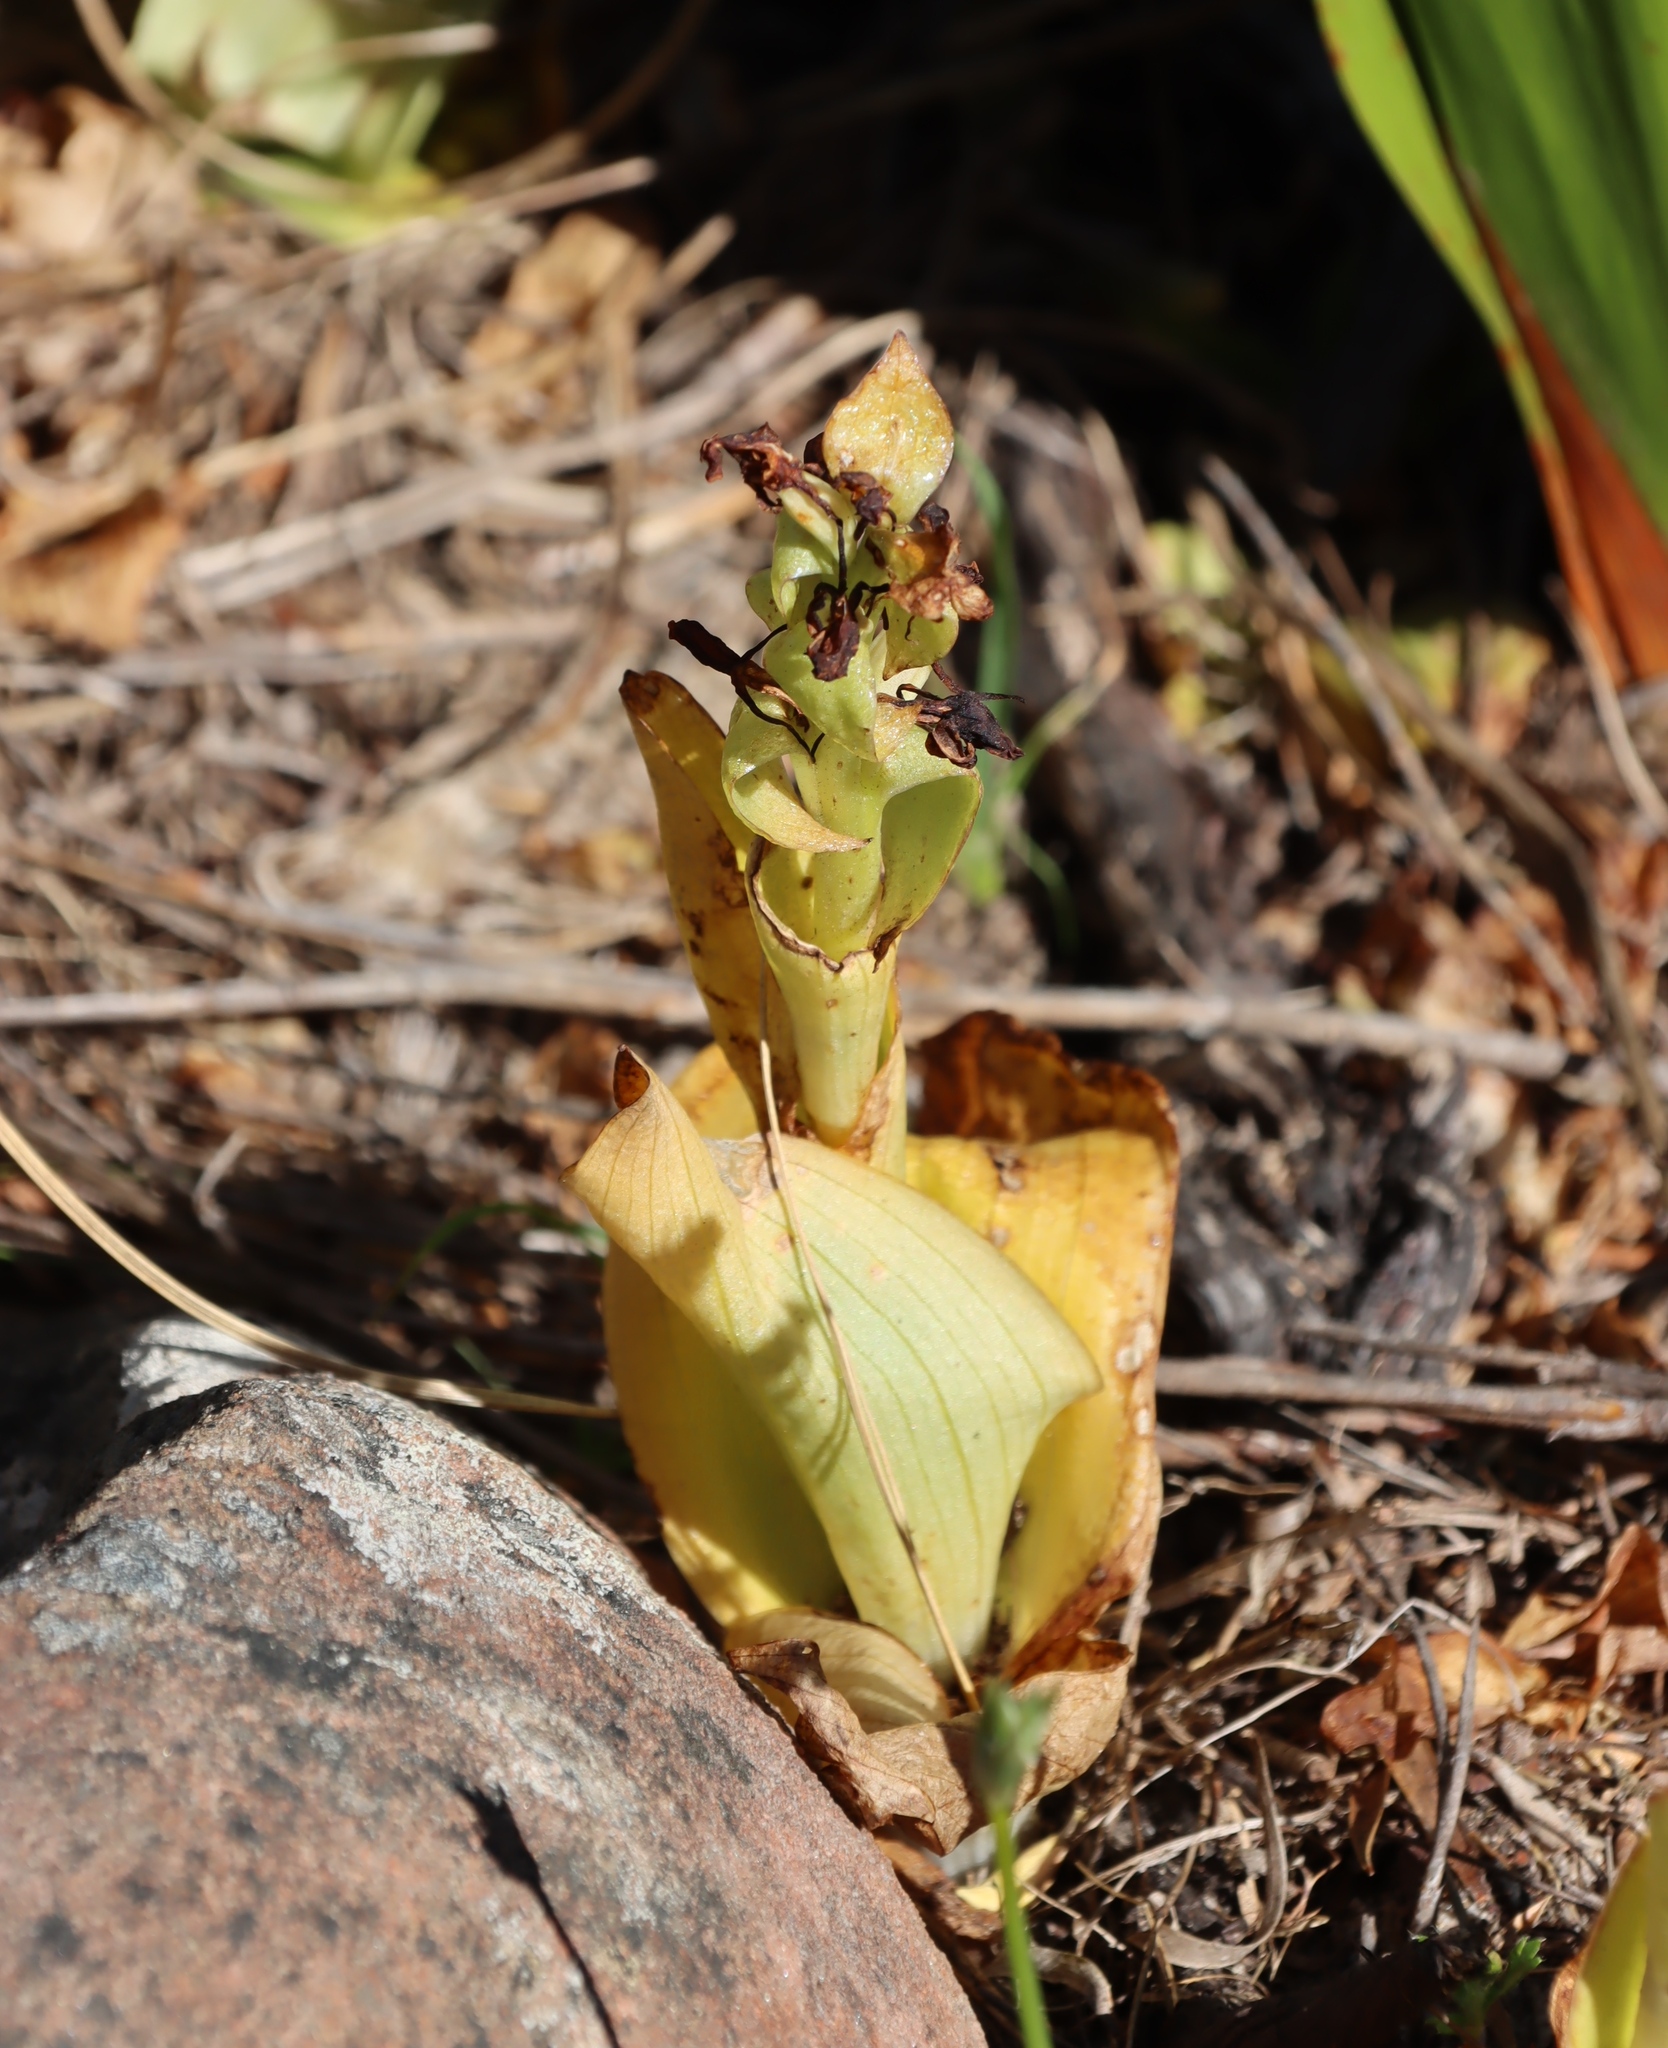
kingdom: Plantae
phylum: Tracheophyta
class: Liliopsida
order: Asparagales
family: Orchidaceae
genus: Satyrium
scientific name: Satyrium odorum
